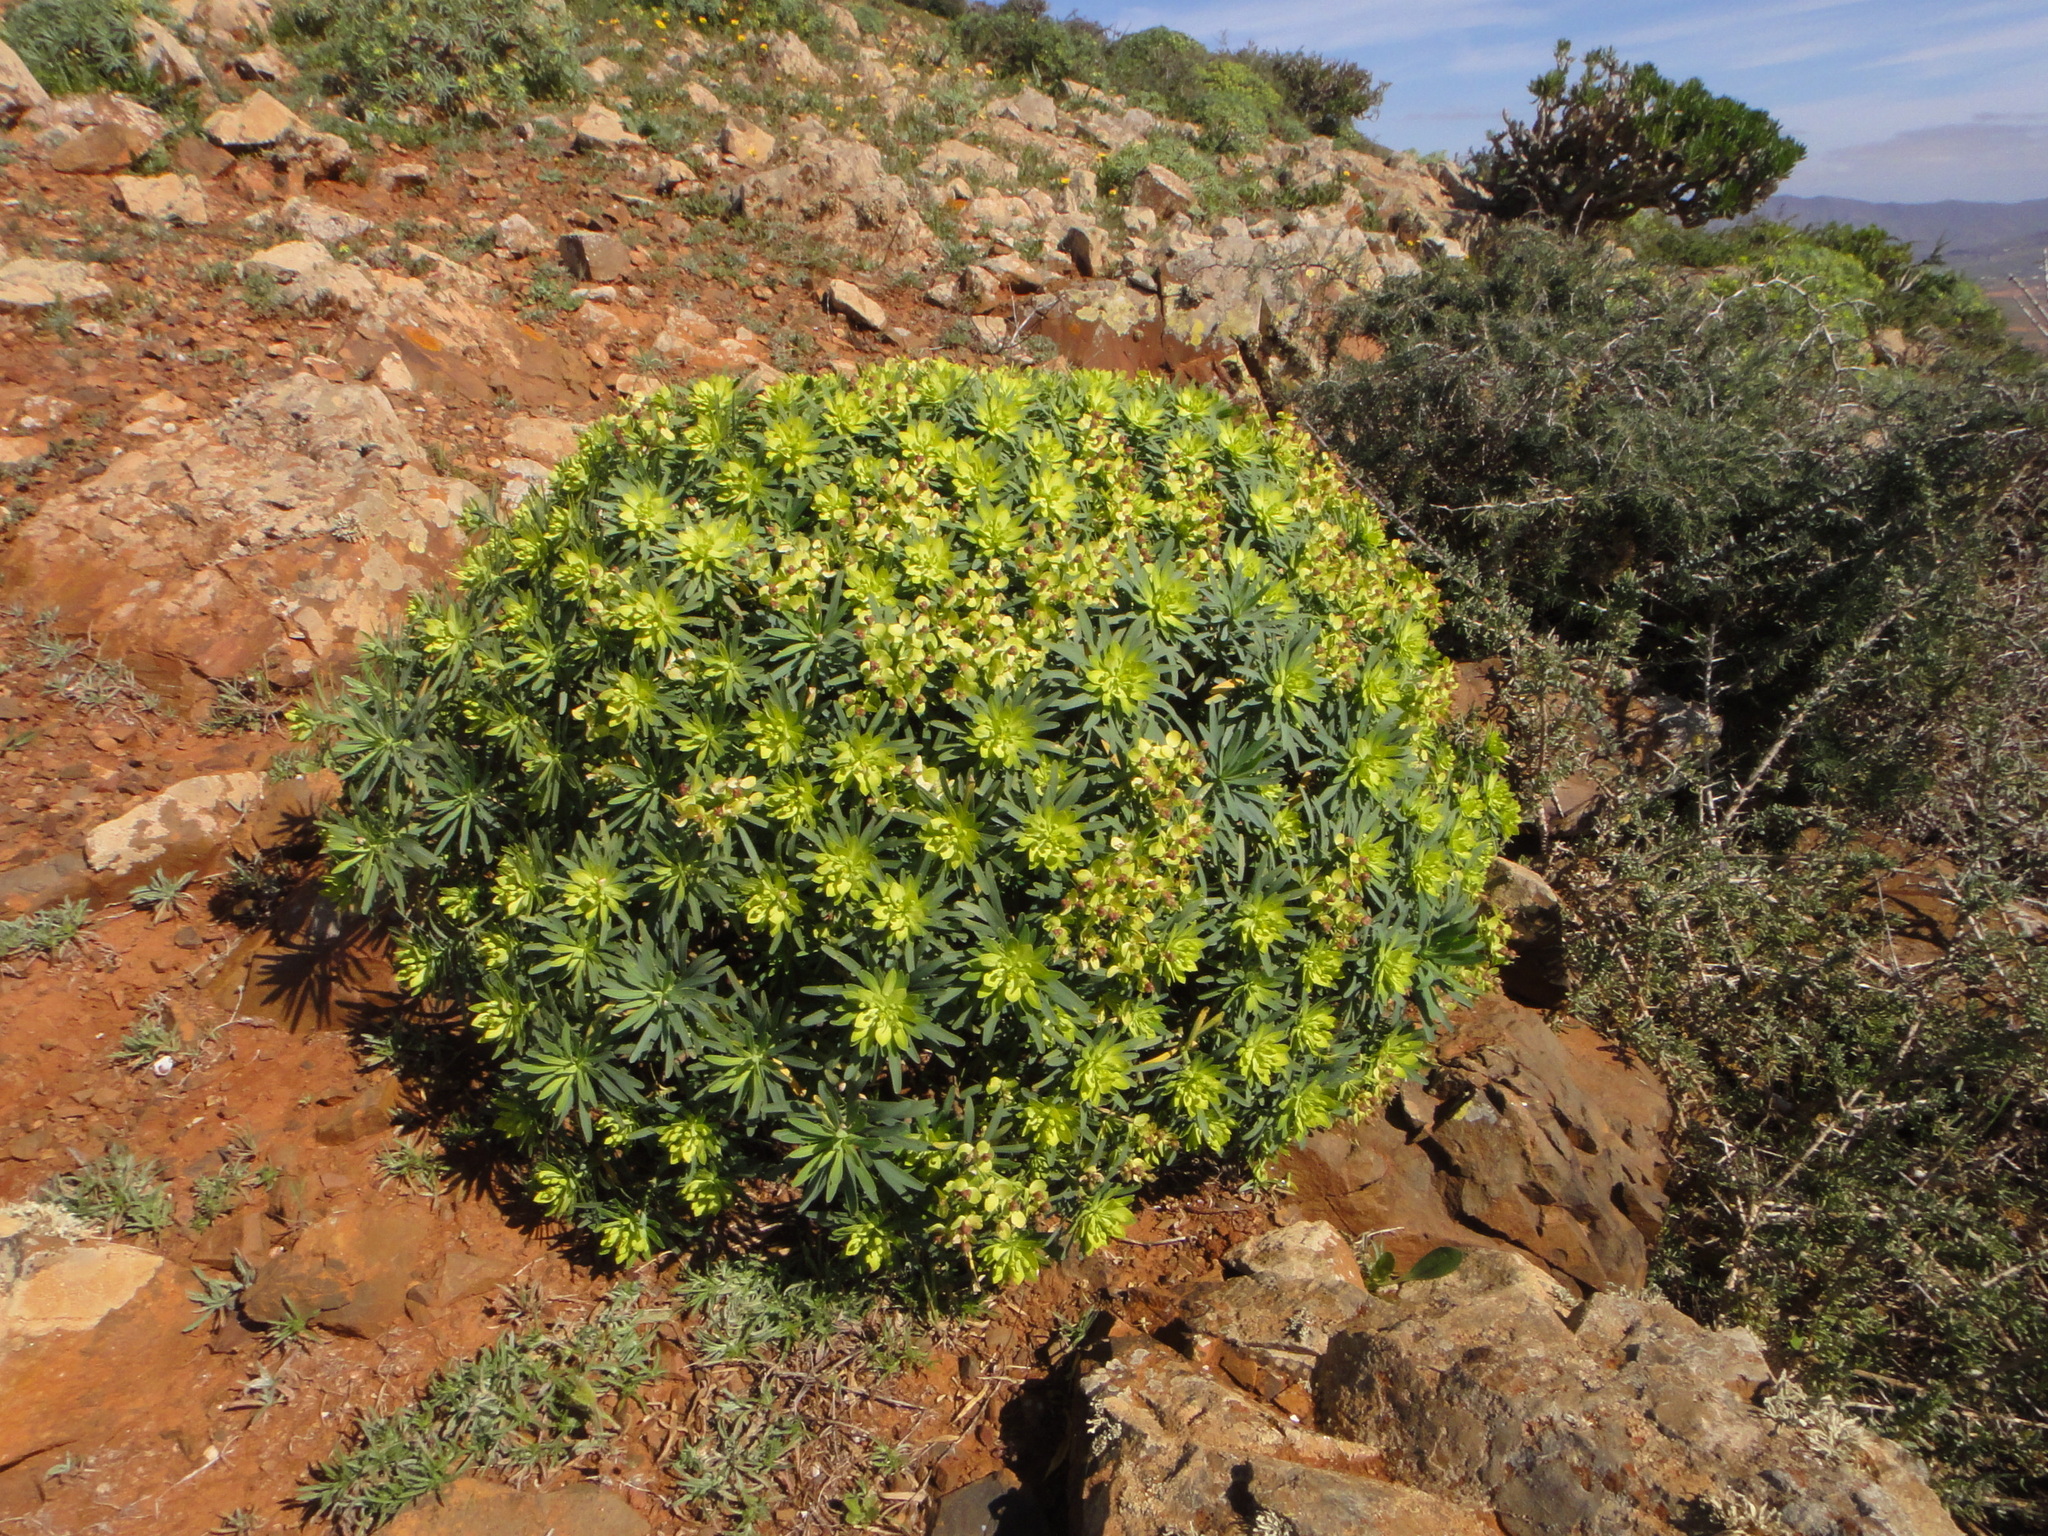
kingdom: Plantae
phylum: Tracheophyta
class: Magnoliopsida
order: Malpighiales
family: Euphorbiaceae
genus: Euphorbia
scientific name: Euphorbia regis-jubae
